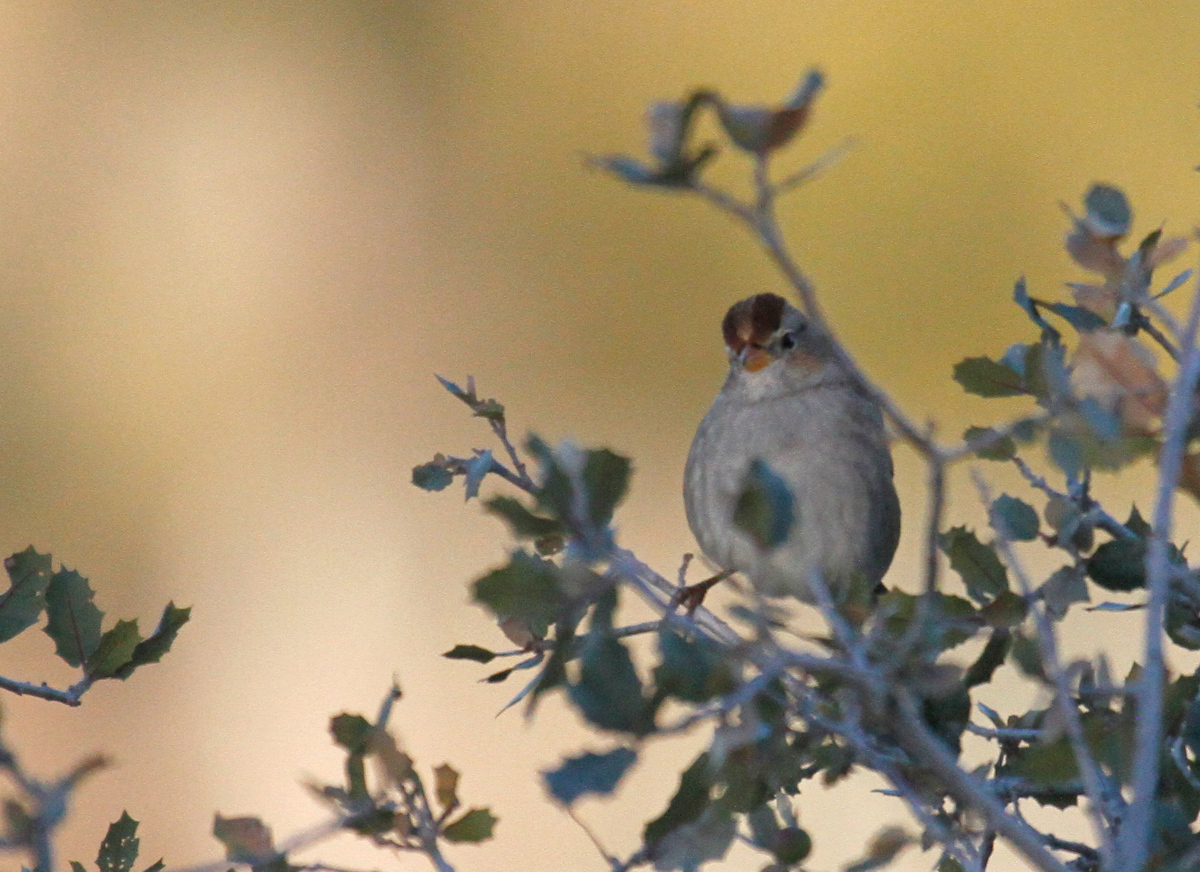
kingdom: Animalia
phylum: Chordata
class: Aves
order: Passeriformes
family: Passerellidae
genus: Zonotrichia
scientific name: Zonotrichia leucophrys
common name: White-crowned sparrow
